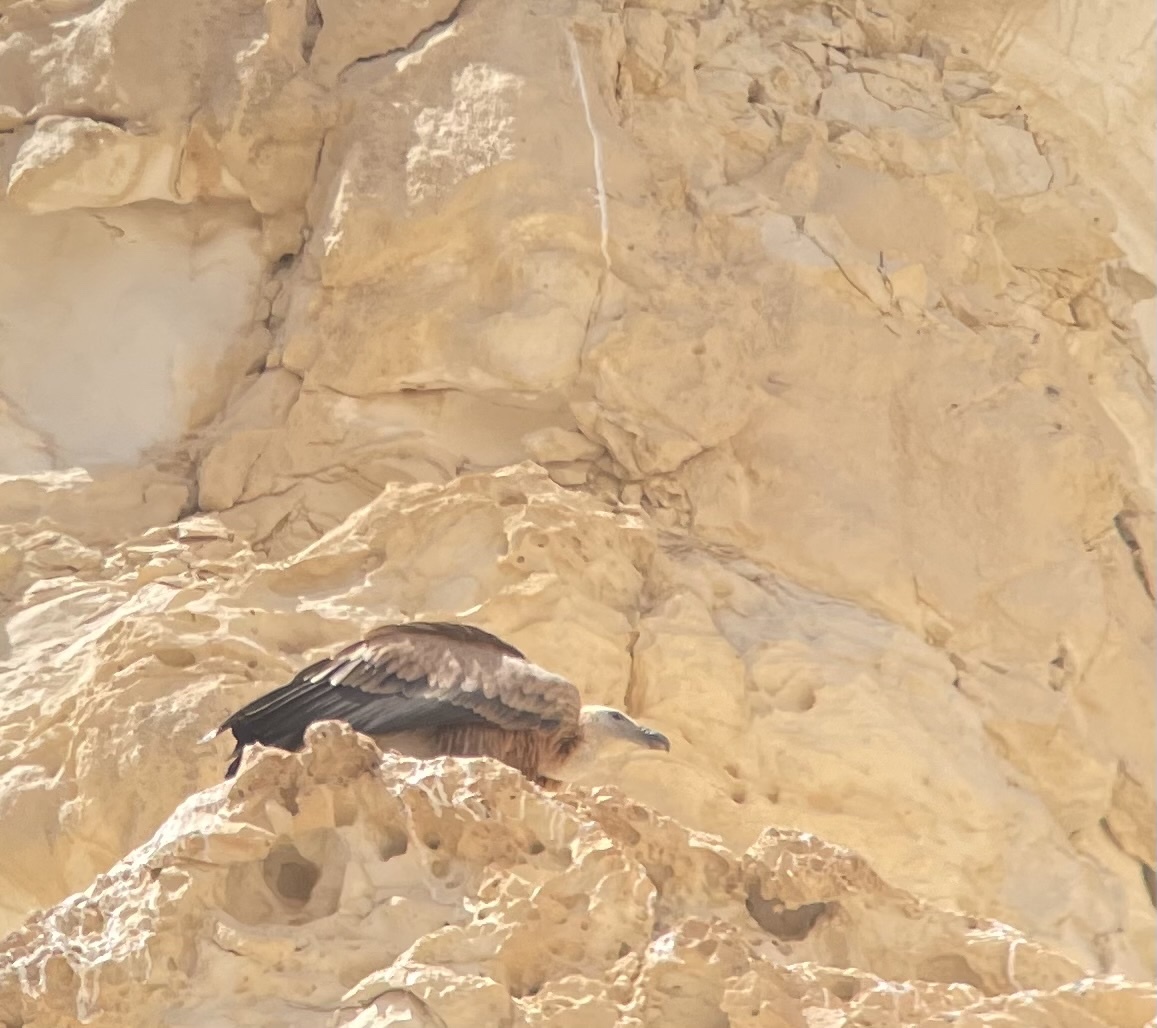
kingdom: Animalia
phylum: Chordata
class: Aves
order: Accipitriformes
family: Accipitridae
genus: Gyps
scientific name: Gyps fulvus
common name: Griffon vulture
